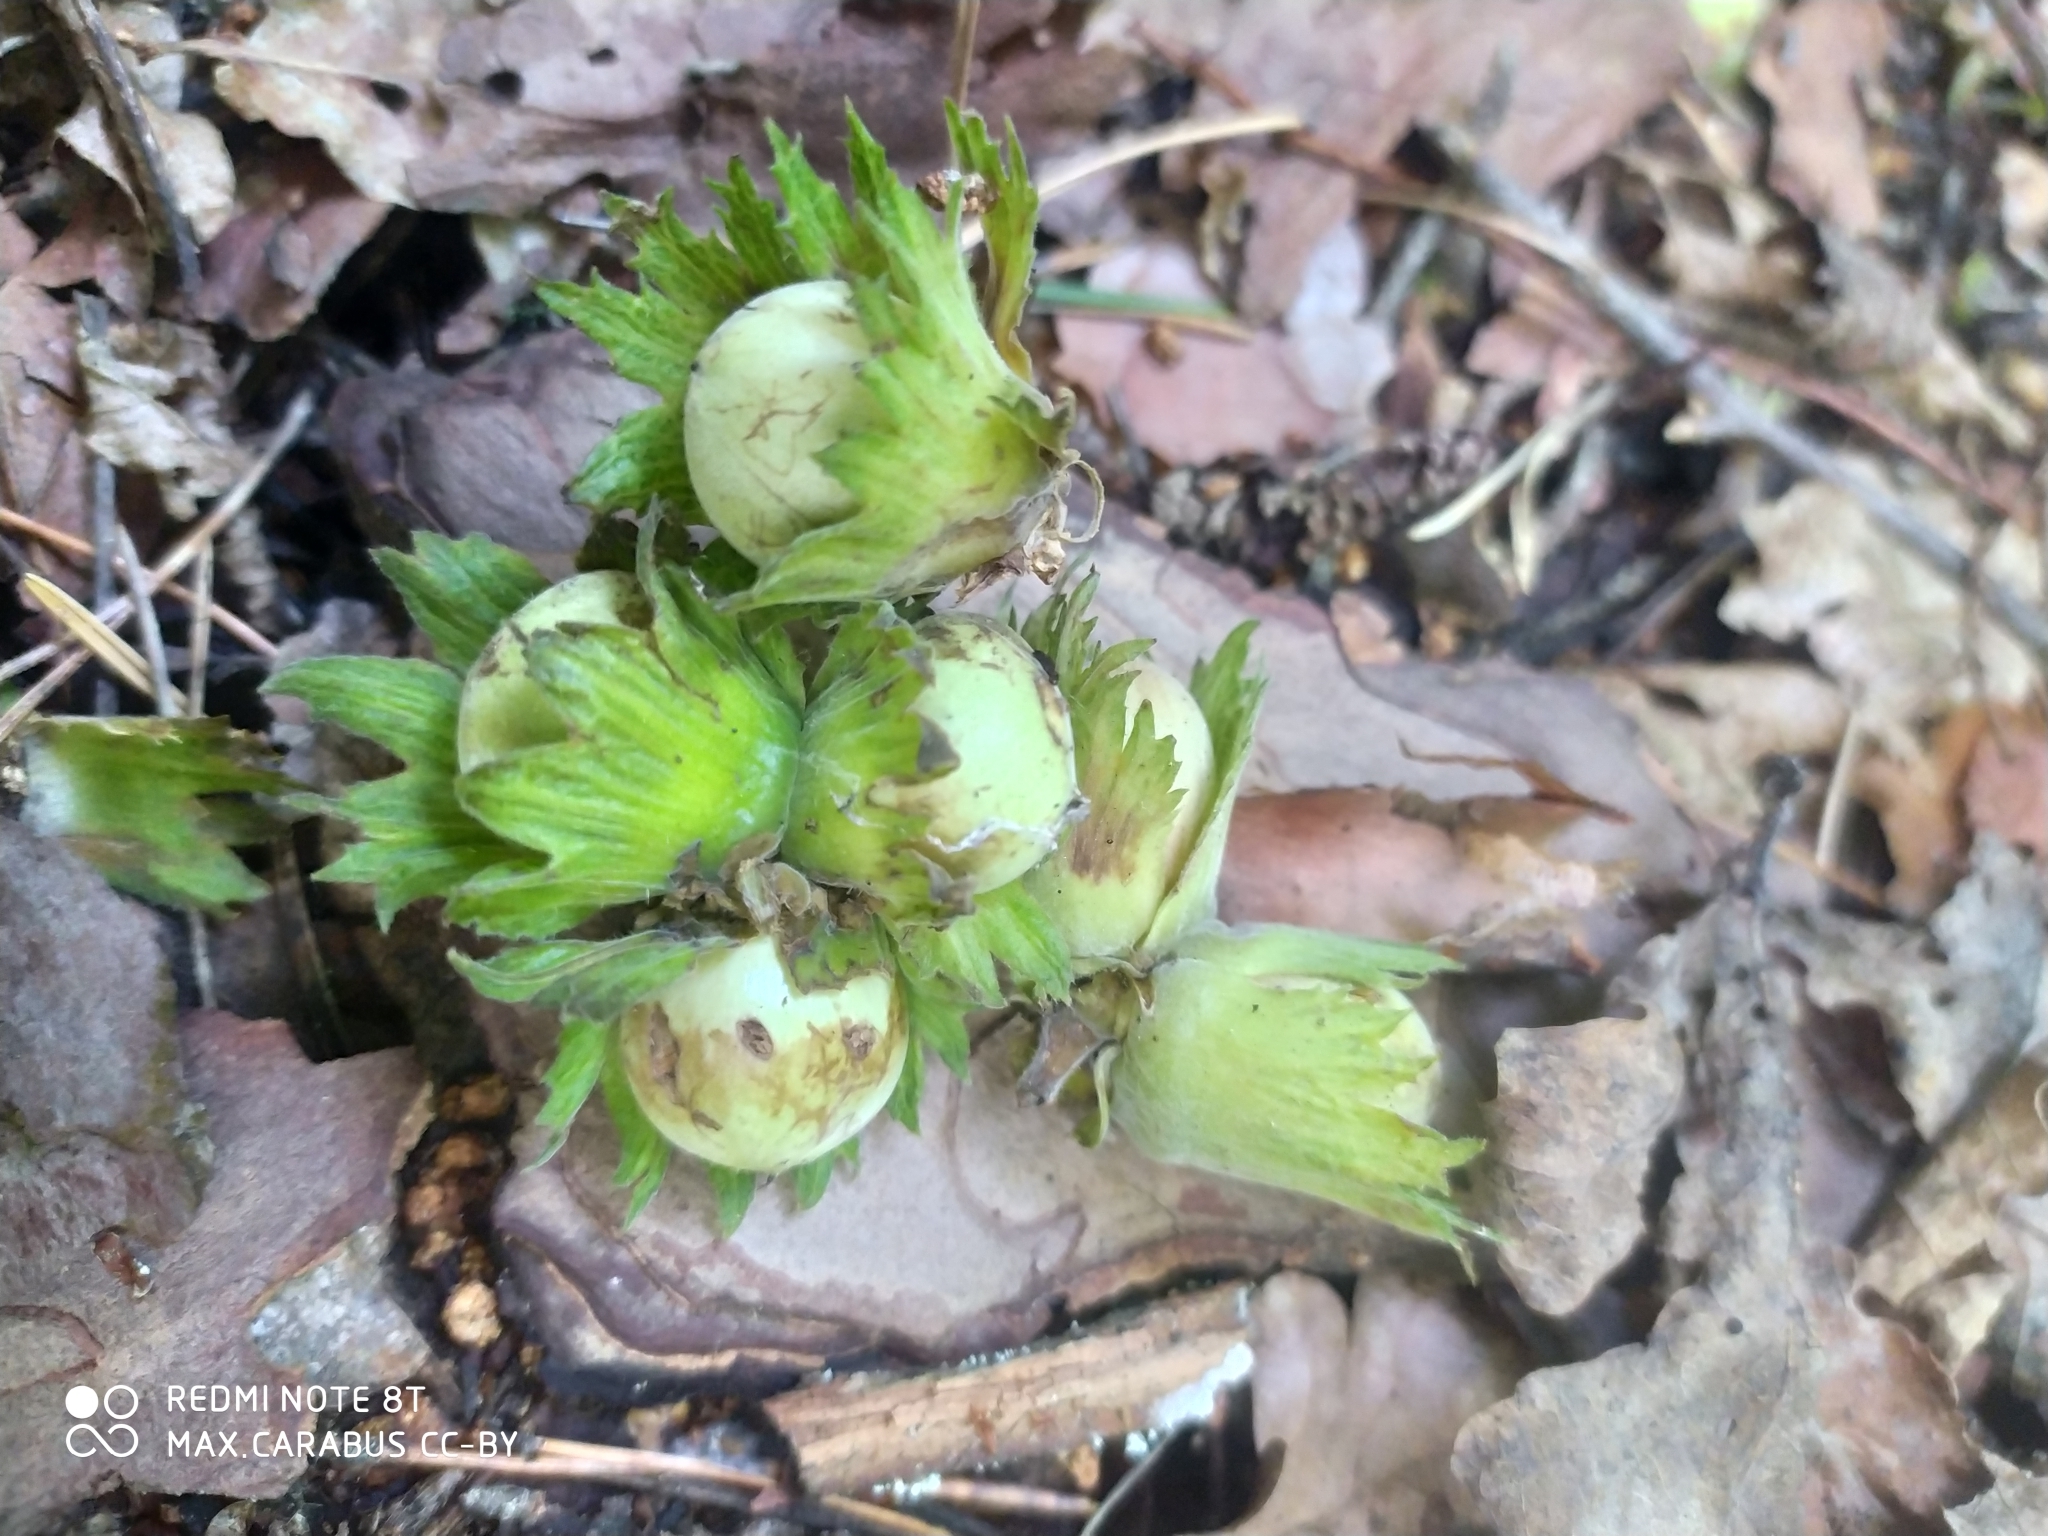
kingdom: Plantae
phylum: Tracheophyta
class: Magnoliopsida
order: Fagales
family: Betulaceae
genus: Corylus
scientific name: Corylus avellana
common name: European hazel
